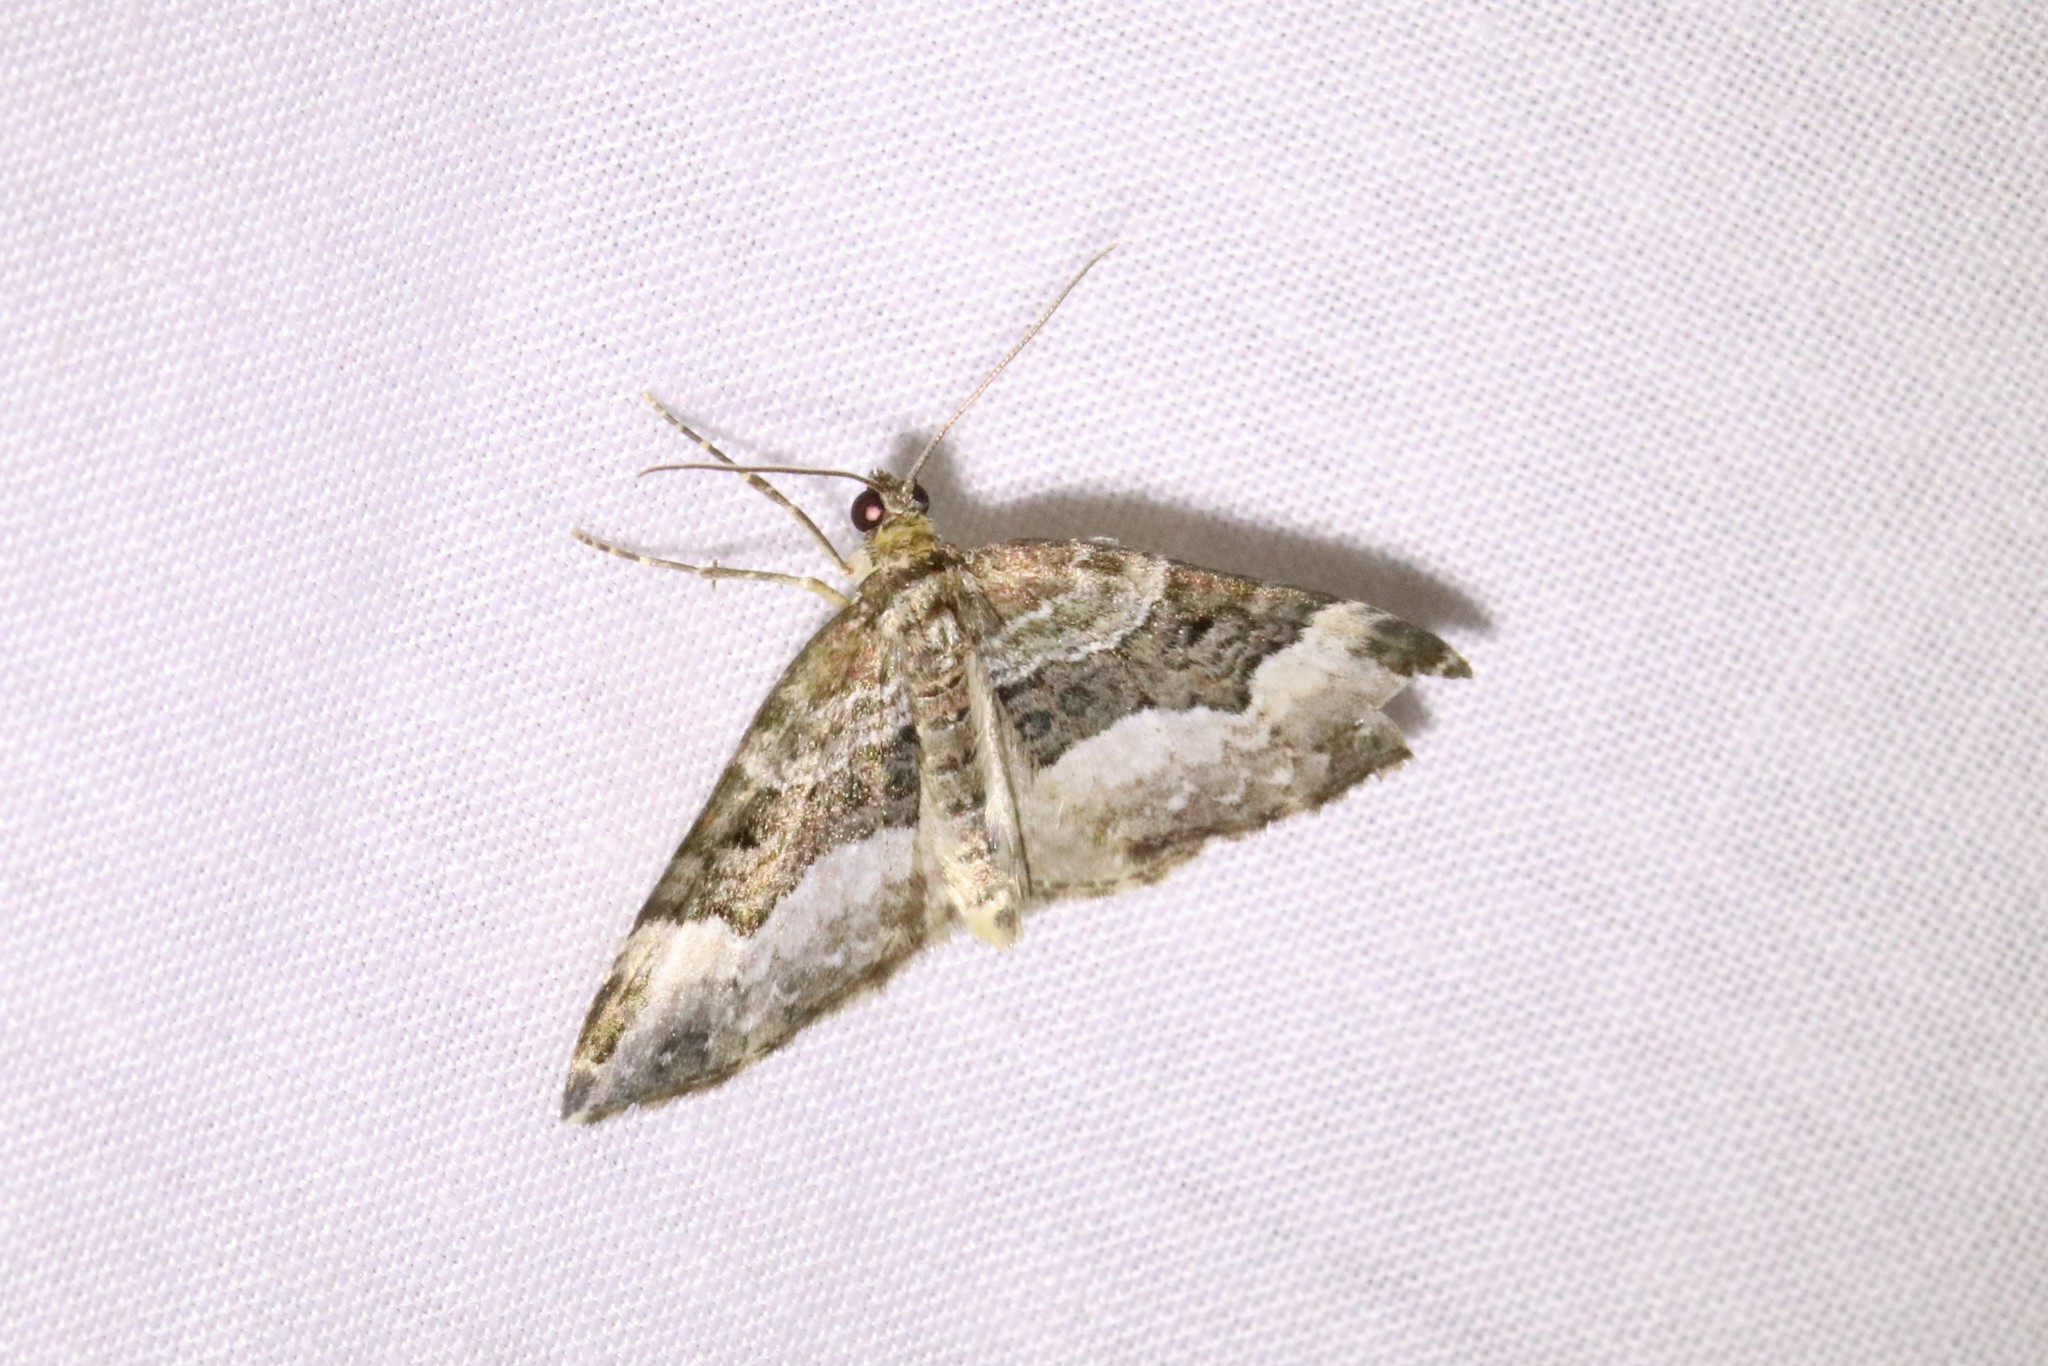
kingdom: Animalia
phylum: Arthropoda
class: Insecta
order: Lepidoptera
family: Geometridae
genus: Euphyia
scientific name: Euphyia intermediata
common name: Sharp-angled carpet
